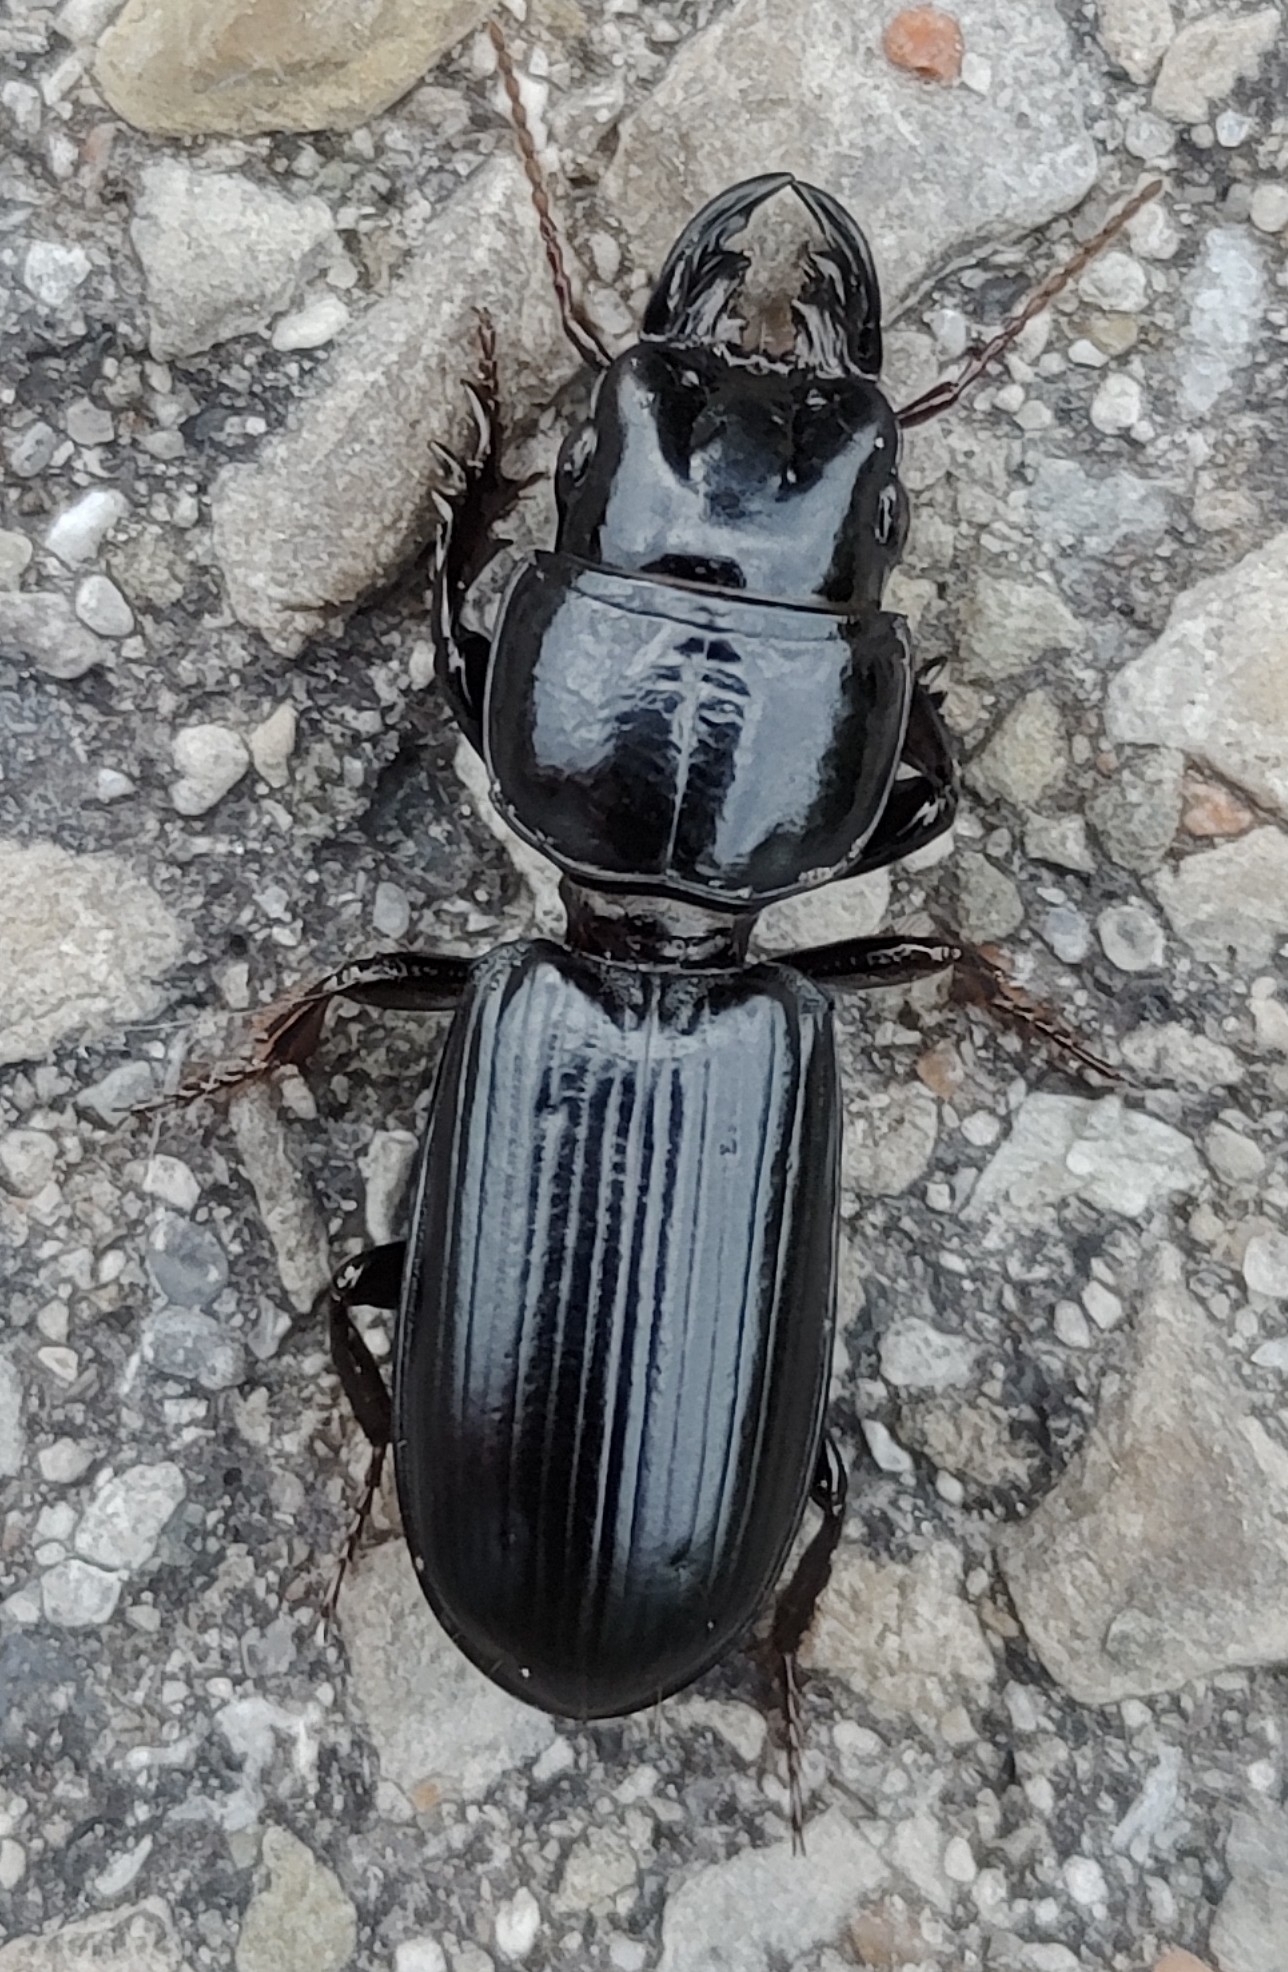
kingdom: Animalia
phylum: Arthropoda
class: Insecta
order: Coleoptera
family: Carabidae
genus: Scarites
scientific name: Scarites subterraneus
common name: Big-headed ground beetle
